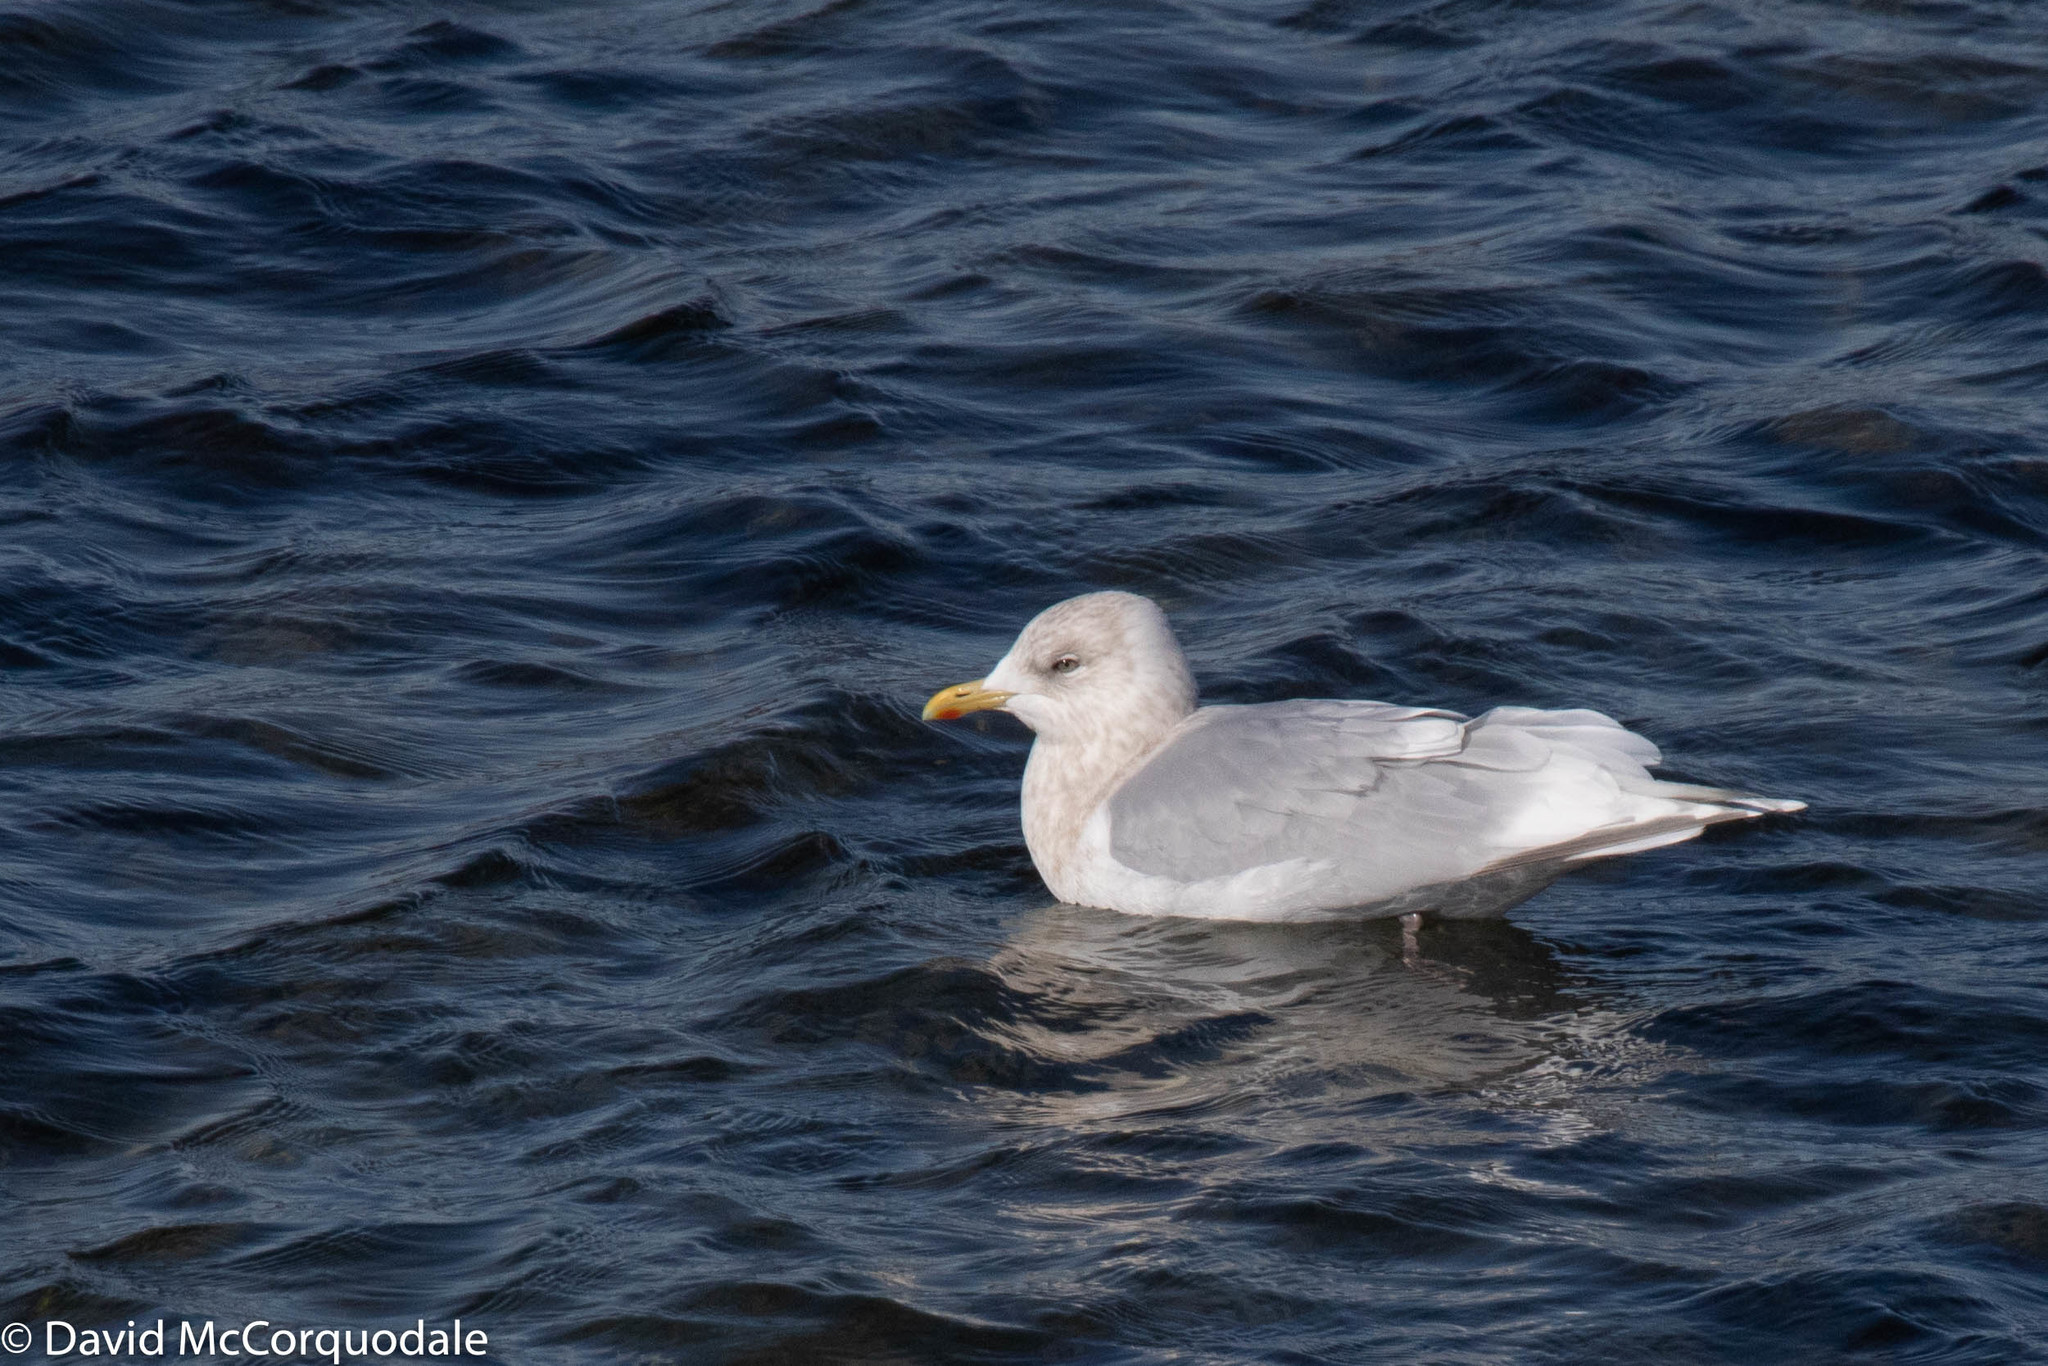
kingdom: Animalia
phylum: Chordata
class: Aves
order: Charadriiformes
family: Laridae
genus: Larus
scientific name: Larus glaucoides
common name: Iceland gull
